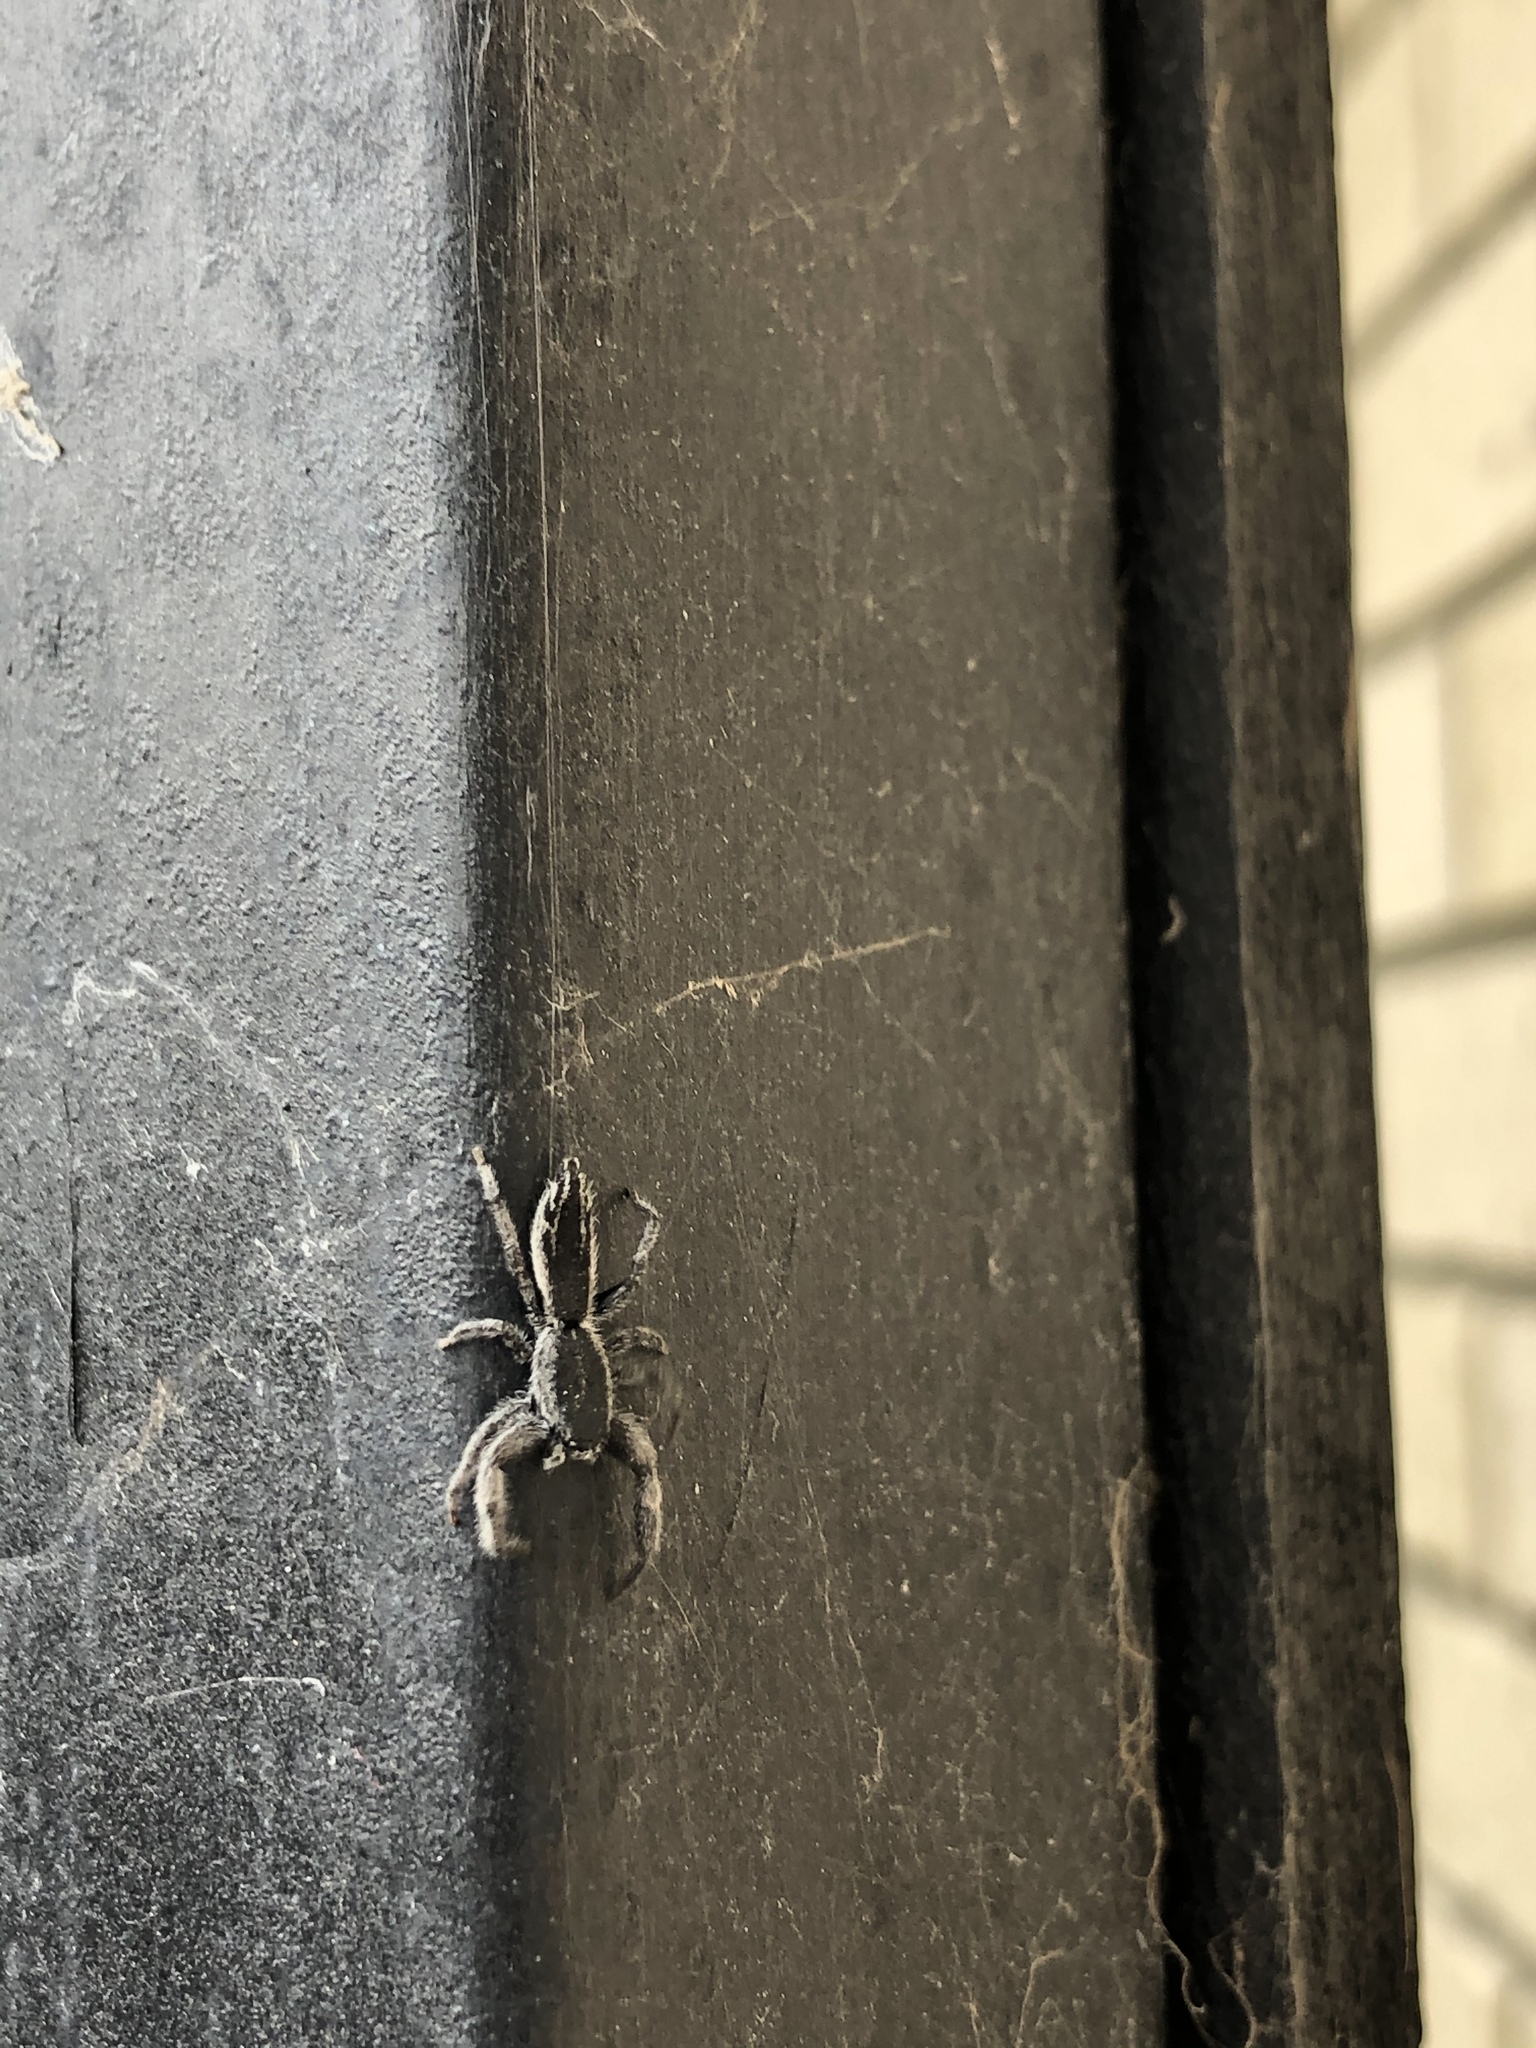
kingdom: Animalia
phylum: Arthropoda
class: Arachnida
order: Araneae
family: Salticidae
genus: Holoplatys
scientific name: Holoplatys apressus
